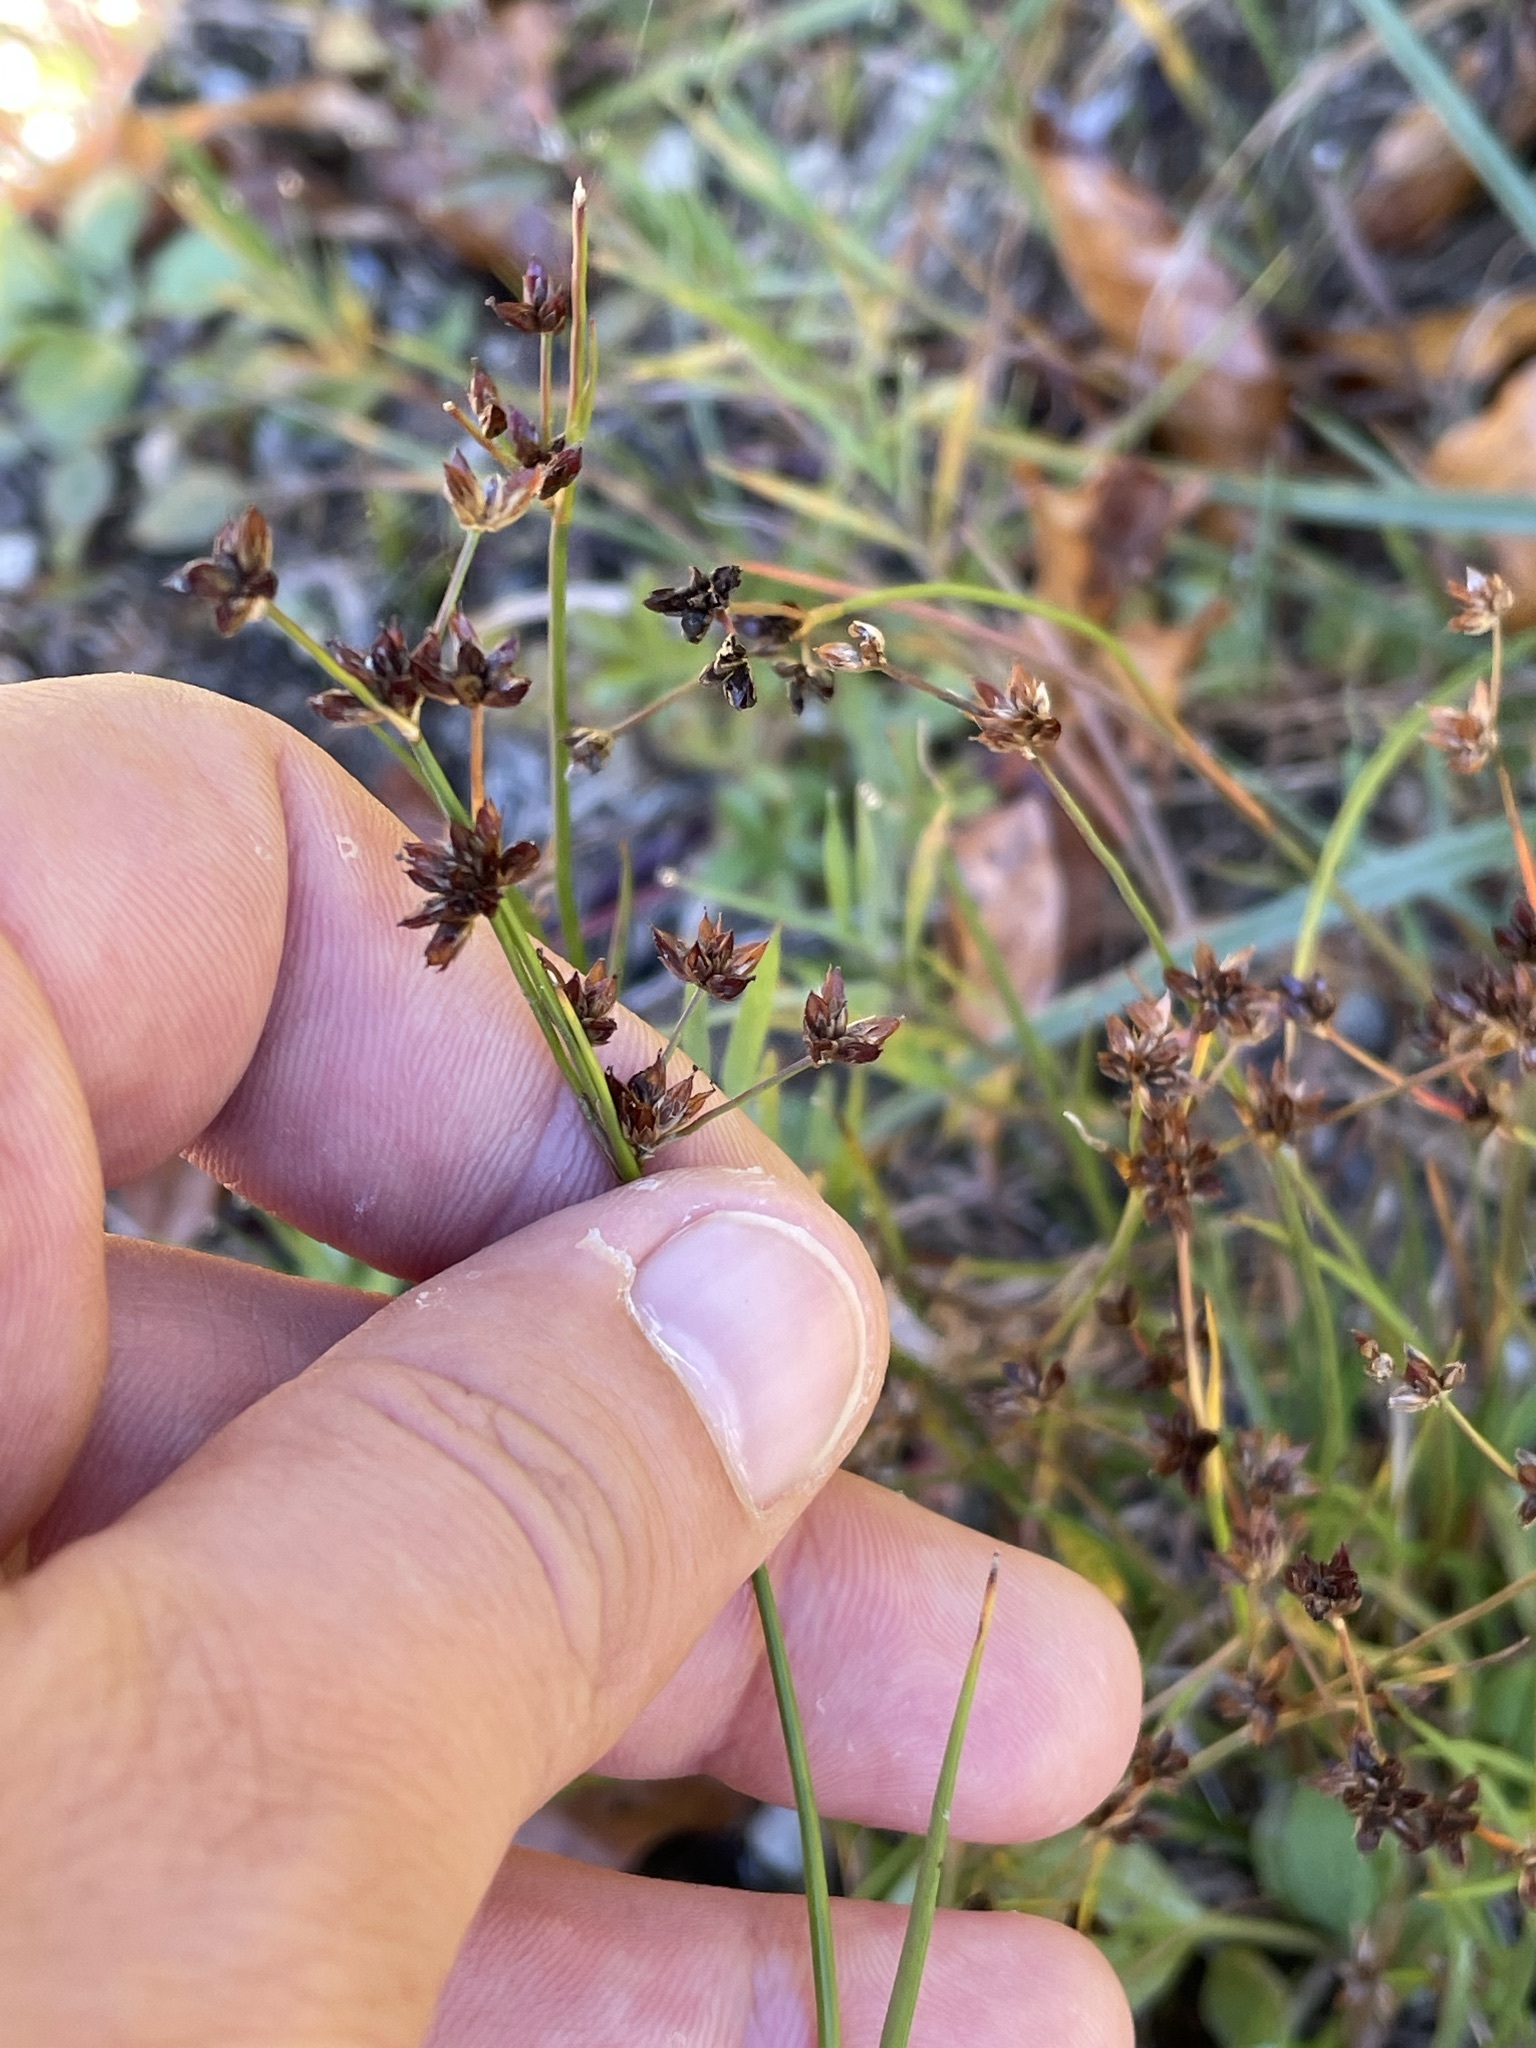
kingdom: Plantae
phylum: Tracheophyta
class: Liliopsida
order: Poales
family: Juncaceae
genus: Juncus
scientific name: Juncus articulatus
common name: Jointed rush
